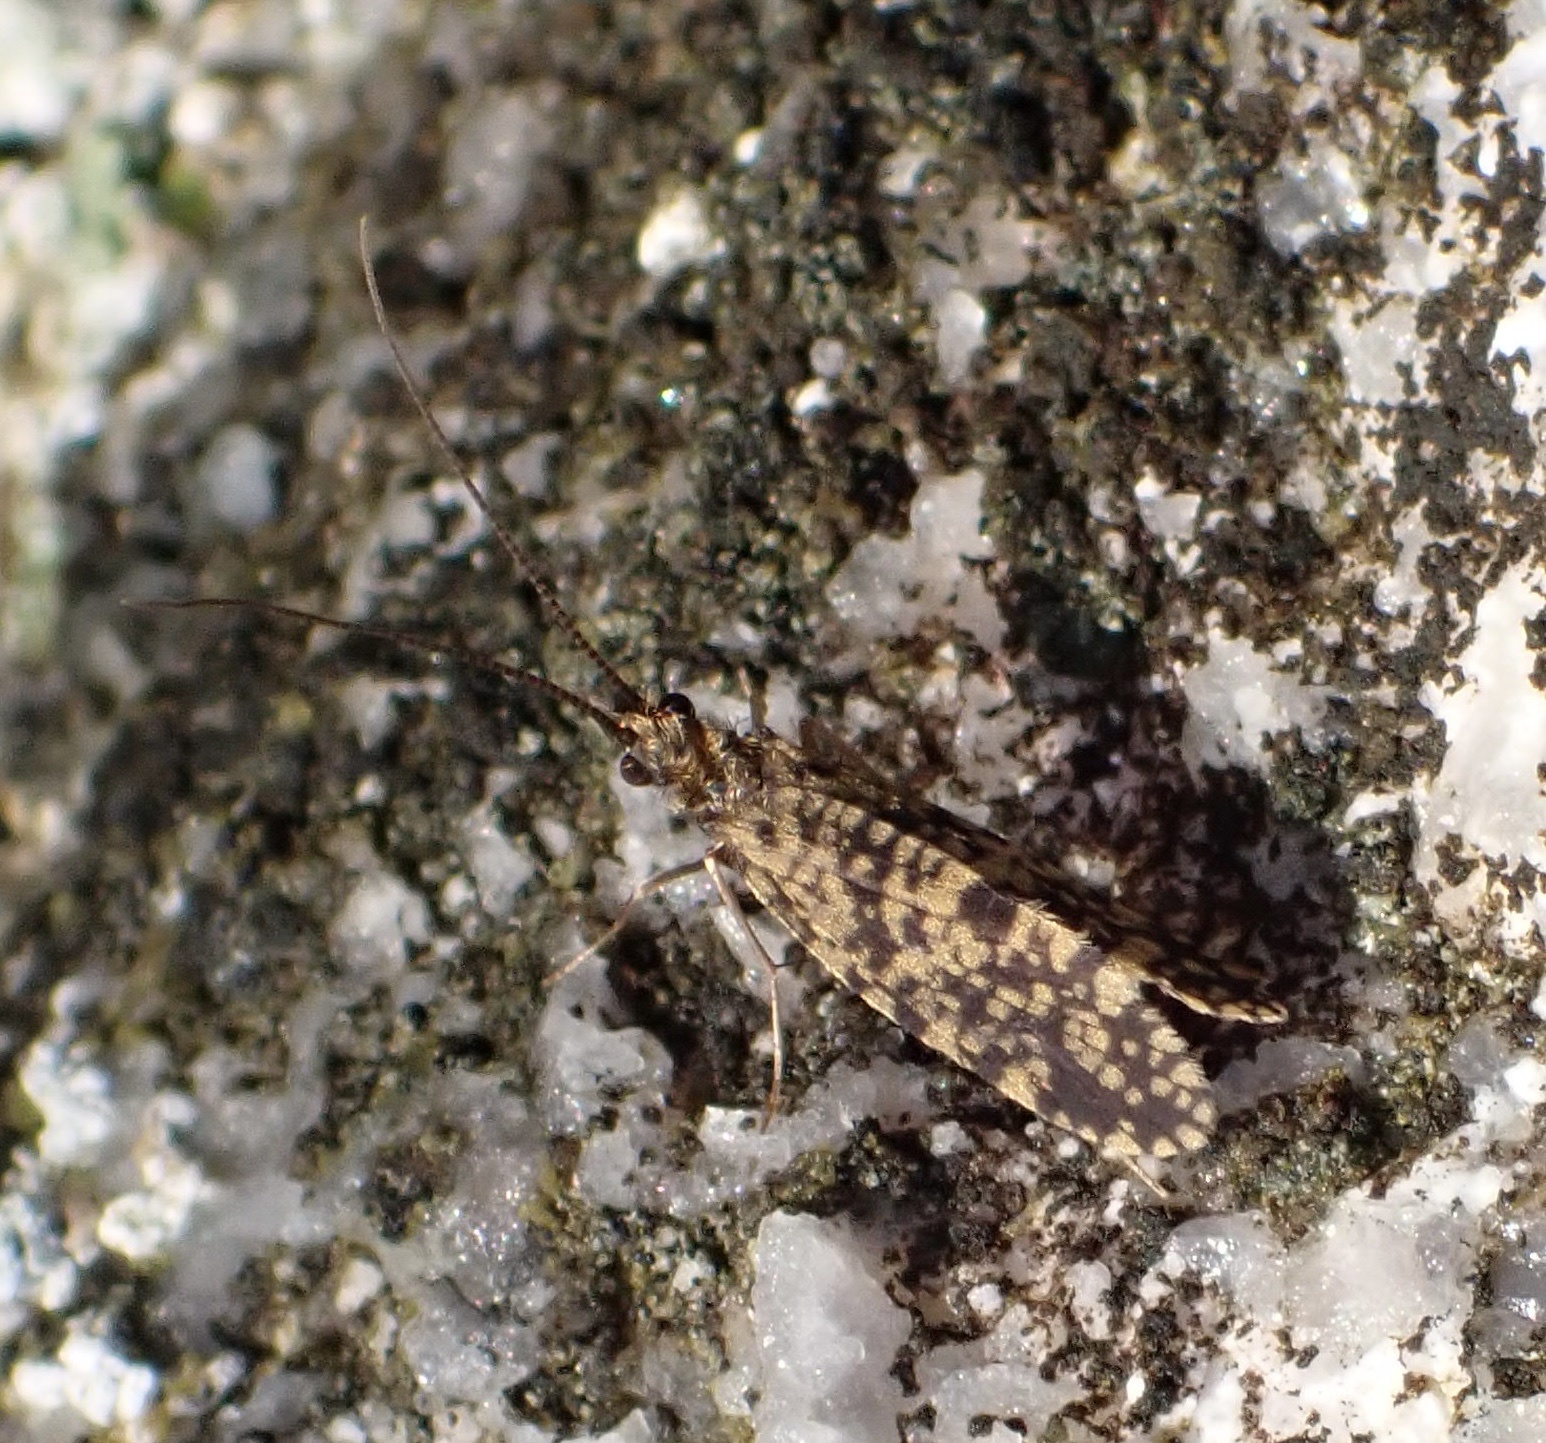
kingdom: Animalia
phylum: Arthropoda
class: Insecta
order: Trichoptera
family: Philopotamidae
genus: Philopotamus
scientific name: Philopotamus montanus
